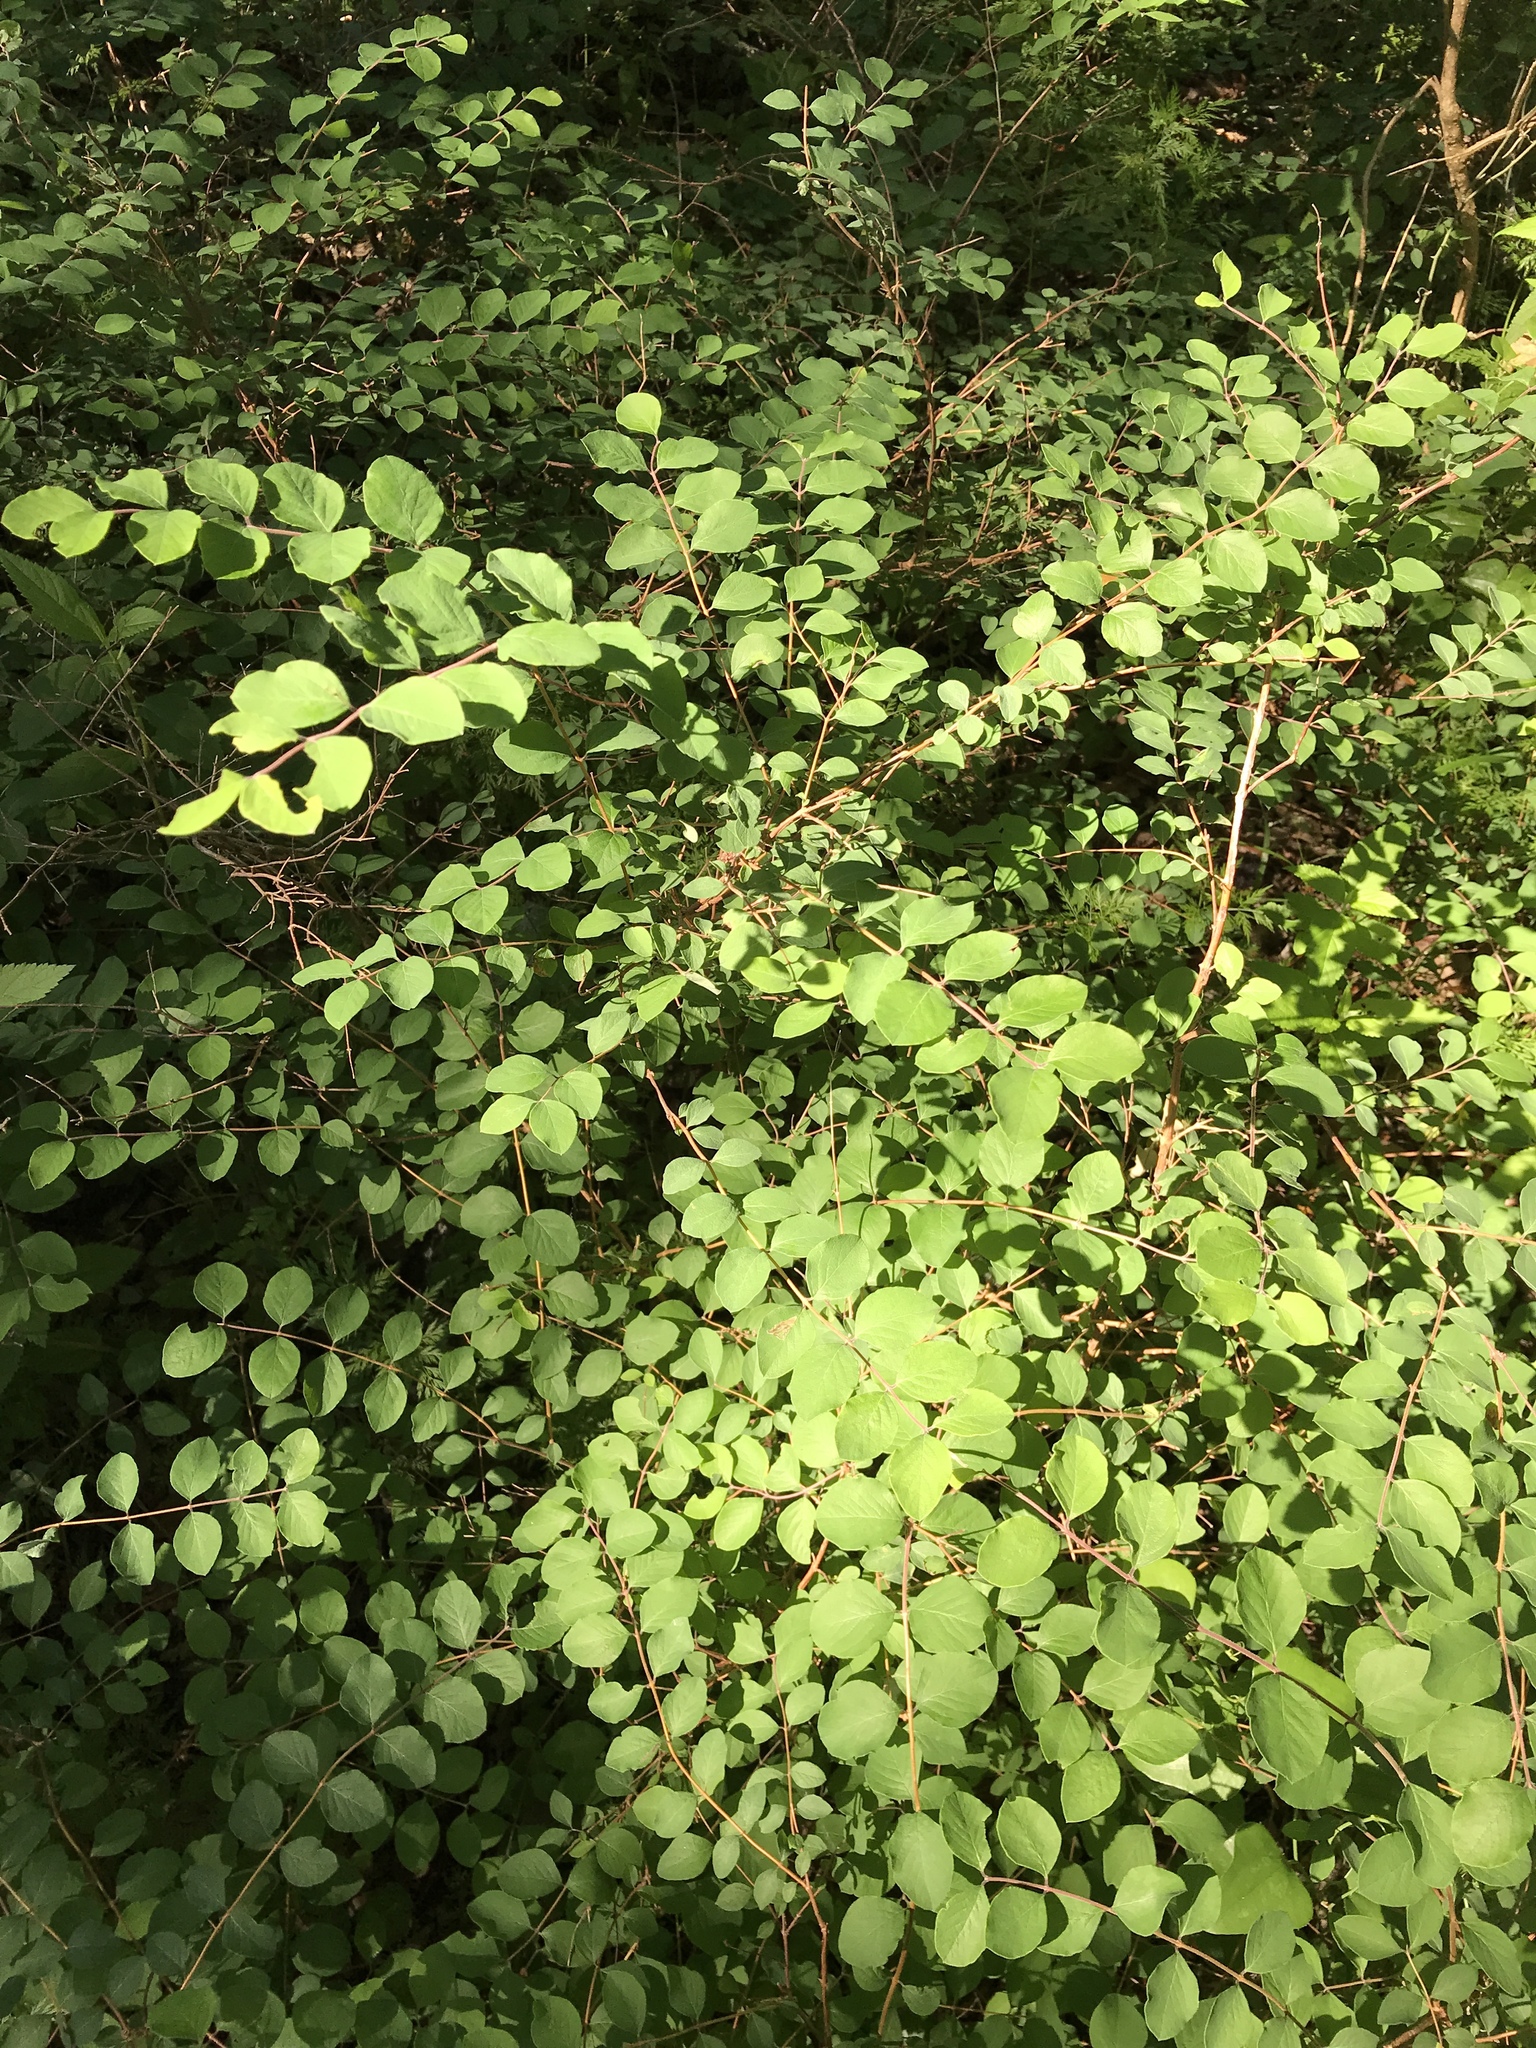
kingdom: Plantae
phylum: Tracheophyta
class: Magnoliopsida
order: Dipsacales
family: Caprifoliaceae
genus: Symphoricarpos
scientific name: Symphoricarpos orbiculatus
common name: Coralberry
